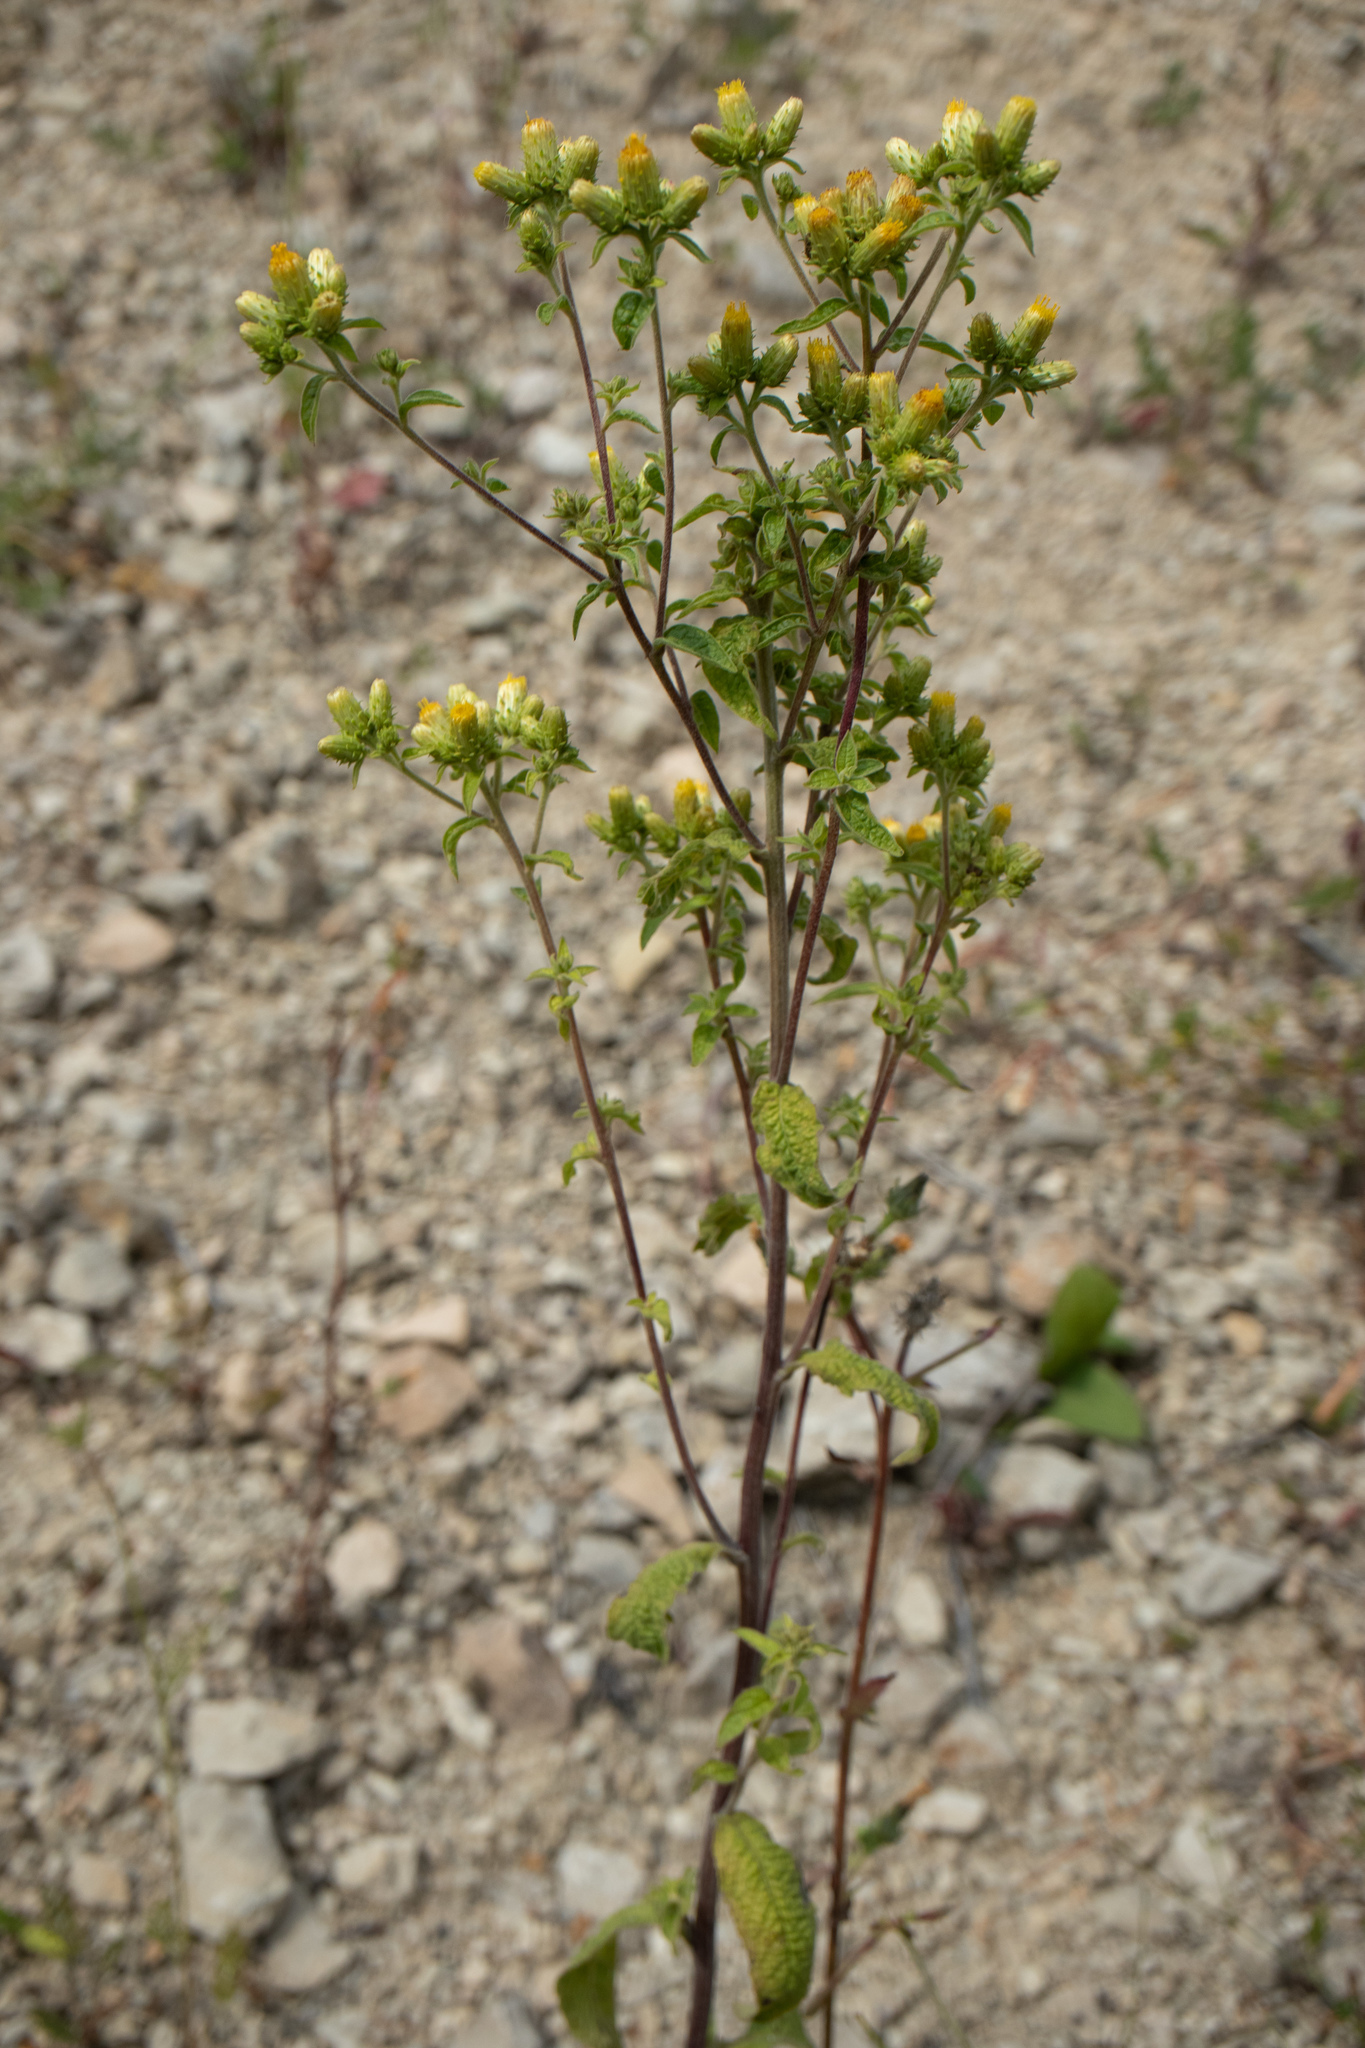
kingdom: Plantae
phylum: Tracheophyta
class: Magnoliopsida
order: Asterales
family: Asteraceae
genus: Pentanema
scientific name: Pentanema squarrosum
